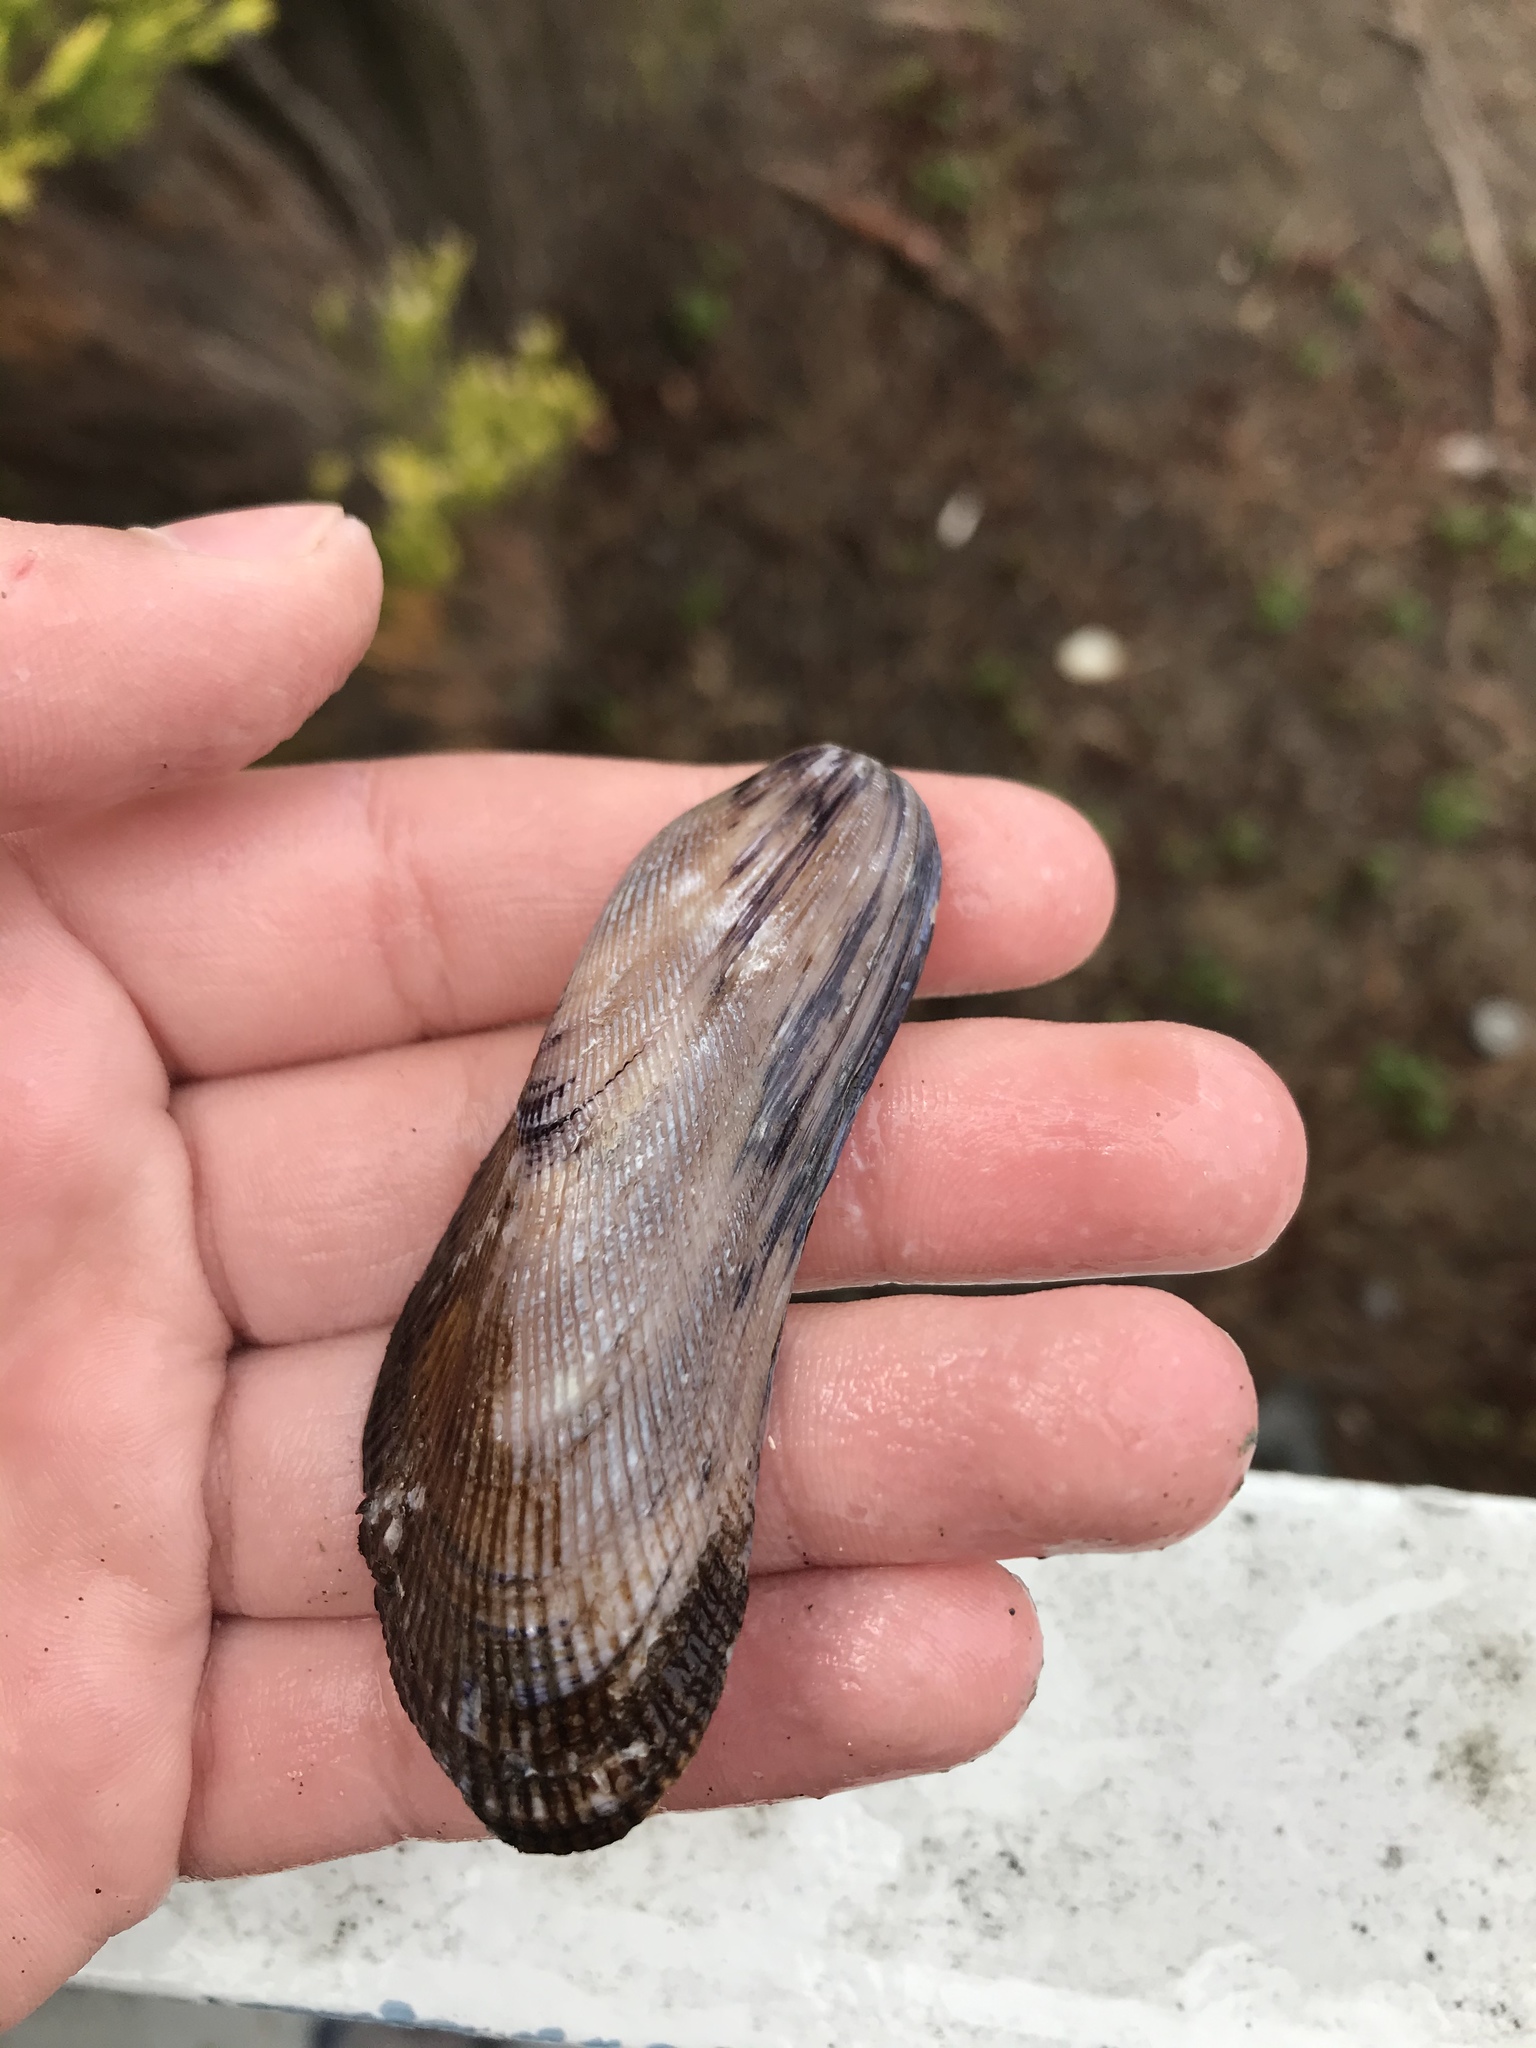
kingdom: Animalia
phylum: Mollusca
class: Bivalvia
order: Mytilida
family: Mytilidae
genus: Geukensia
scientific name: Geukensia demissa
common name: Ribbed mussel
